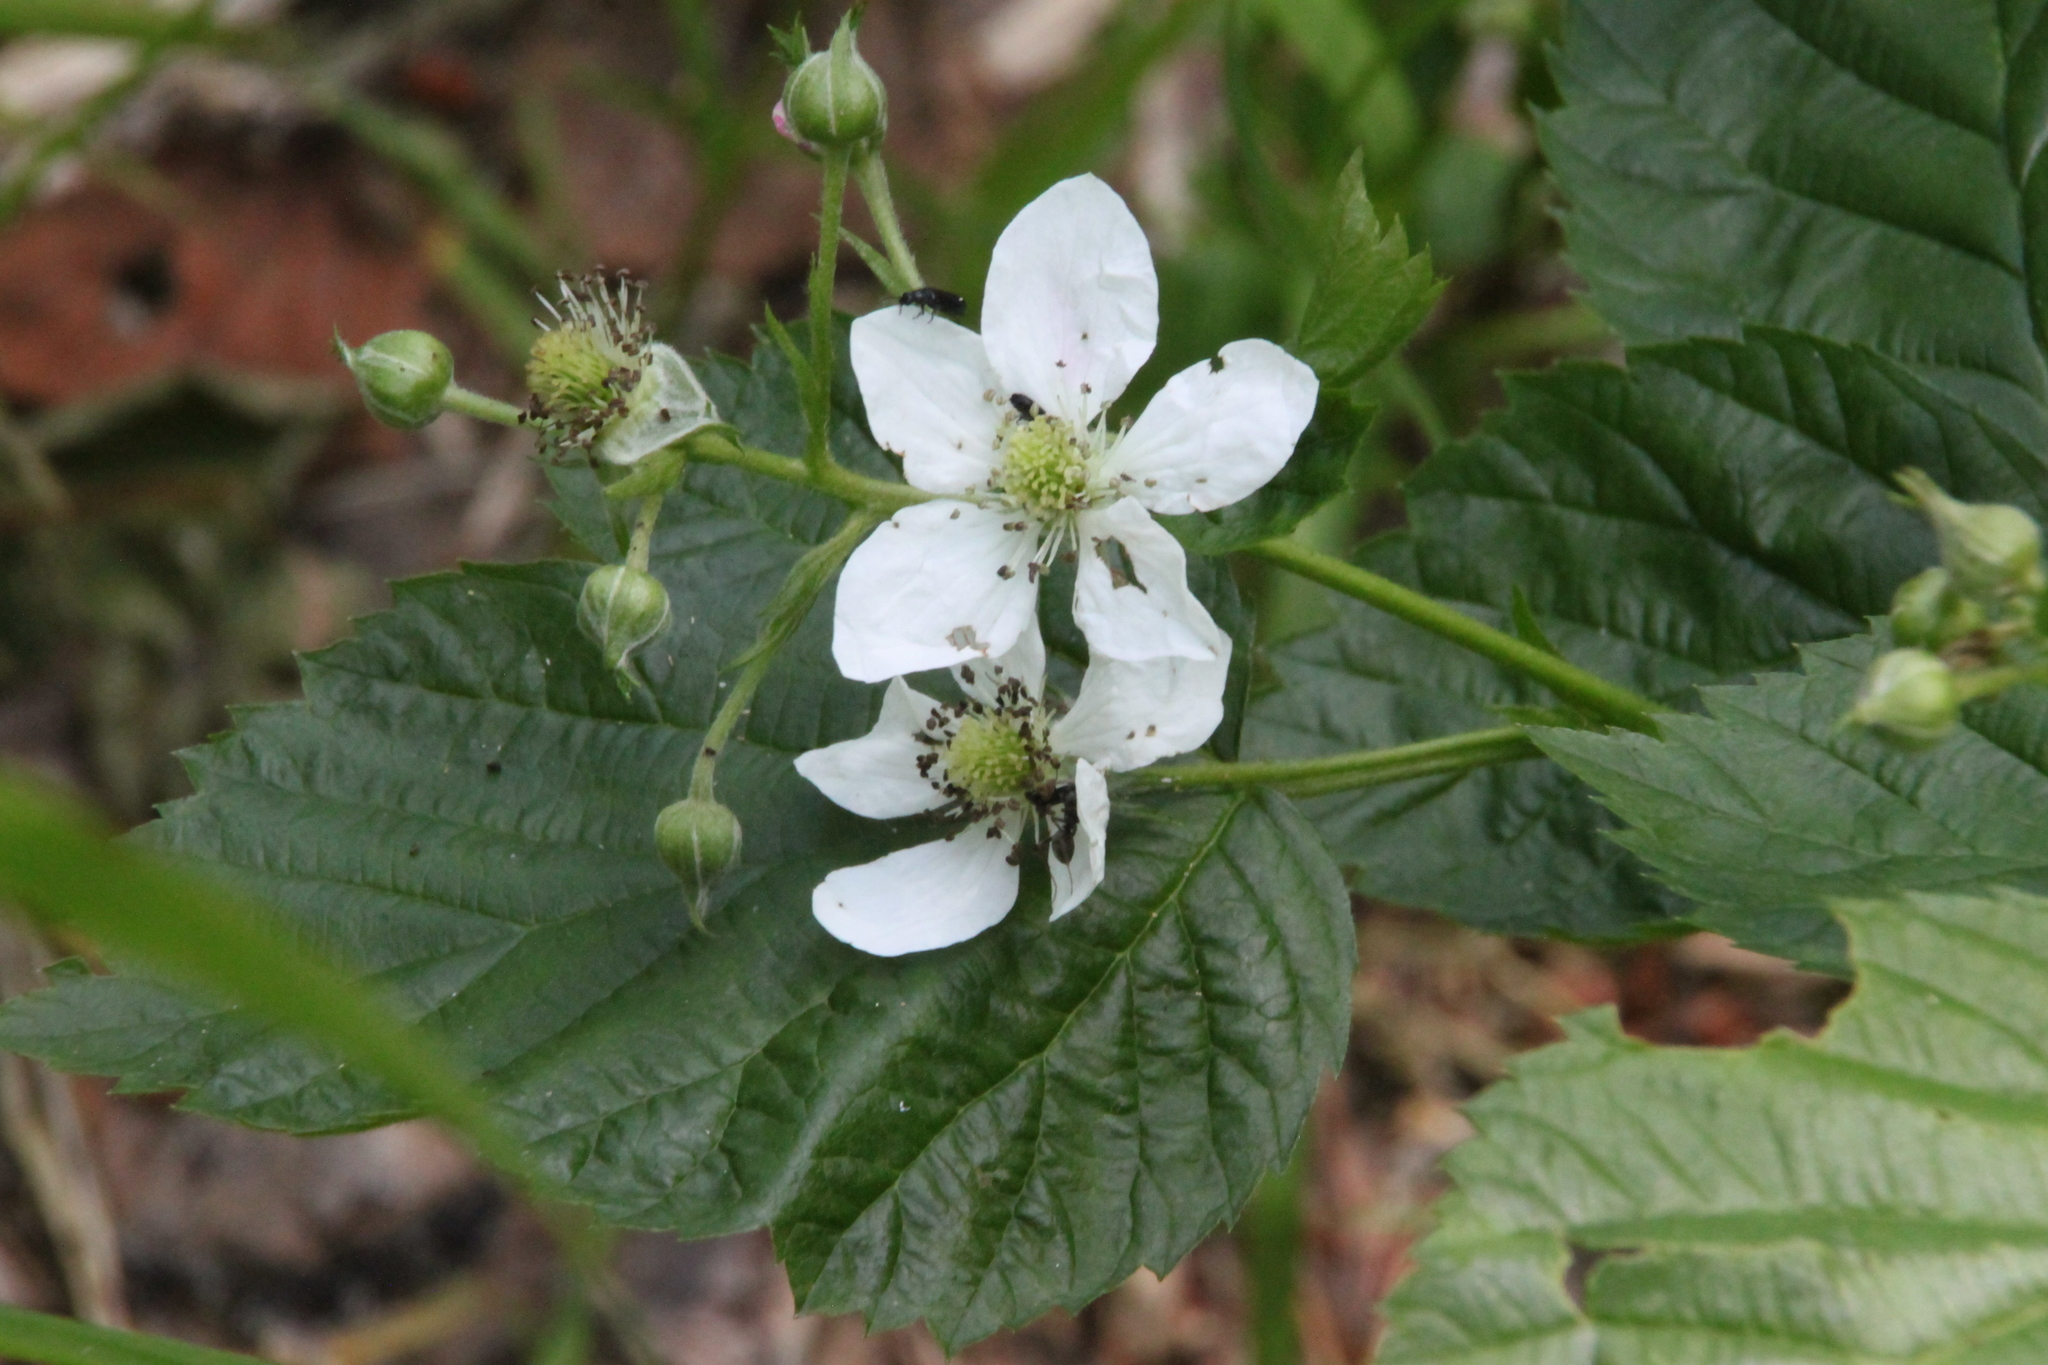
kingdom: Plantae
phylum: Tracheophyta
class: Magnoliopsida
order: Rosales
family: Rosaceae
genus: Rubus
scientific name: Rubus polonicus
